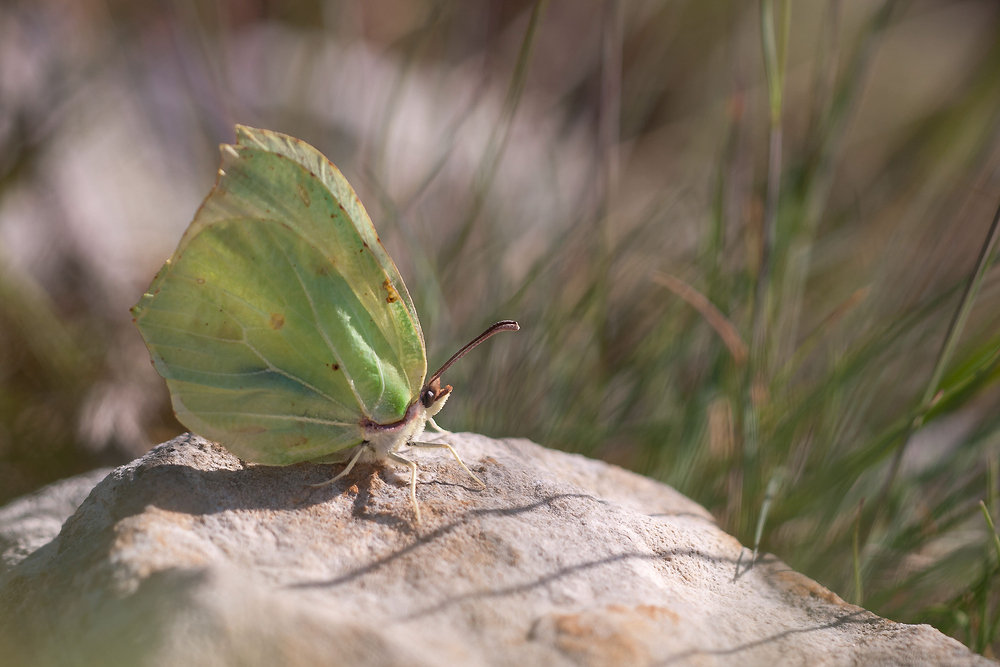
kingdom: Animalia
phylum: Arthropoda
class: Insecta
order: Lepidoptera
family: Pieridae
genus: Gonepteryx
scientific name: Gonepteryx rhamni
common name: Brimstone
